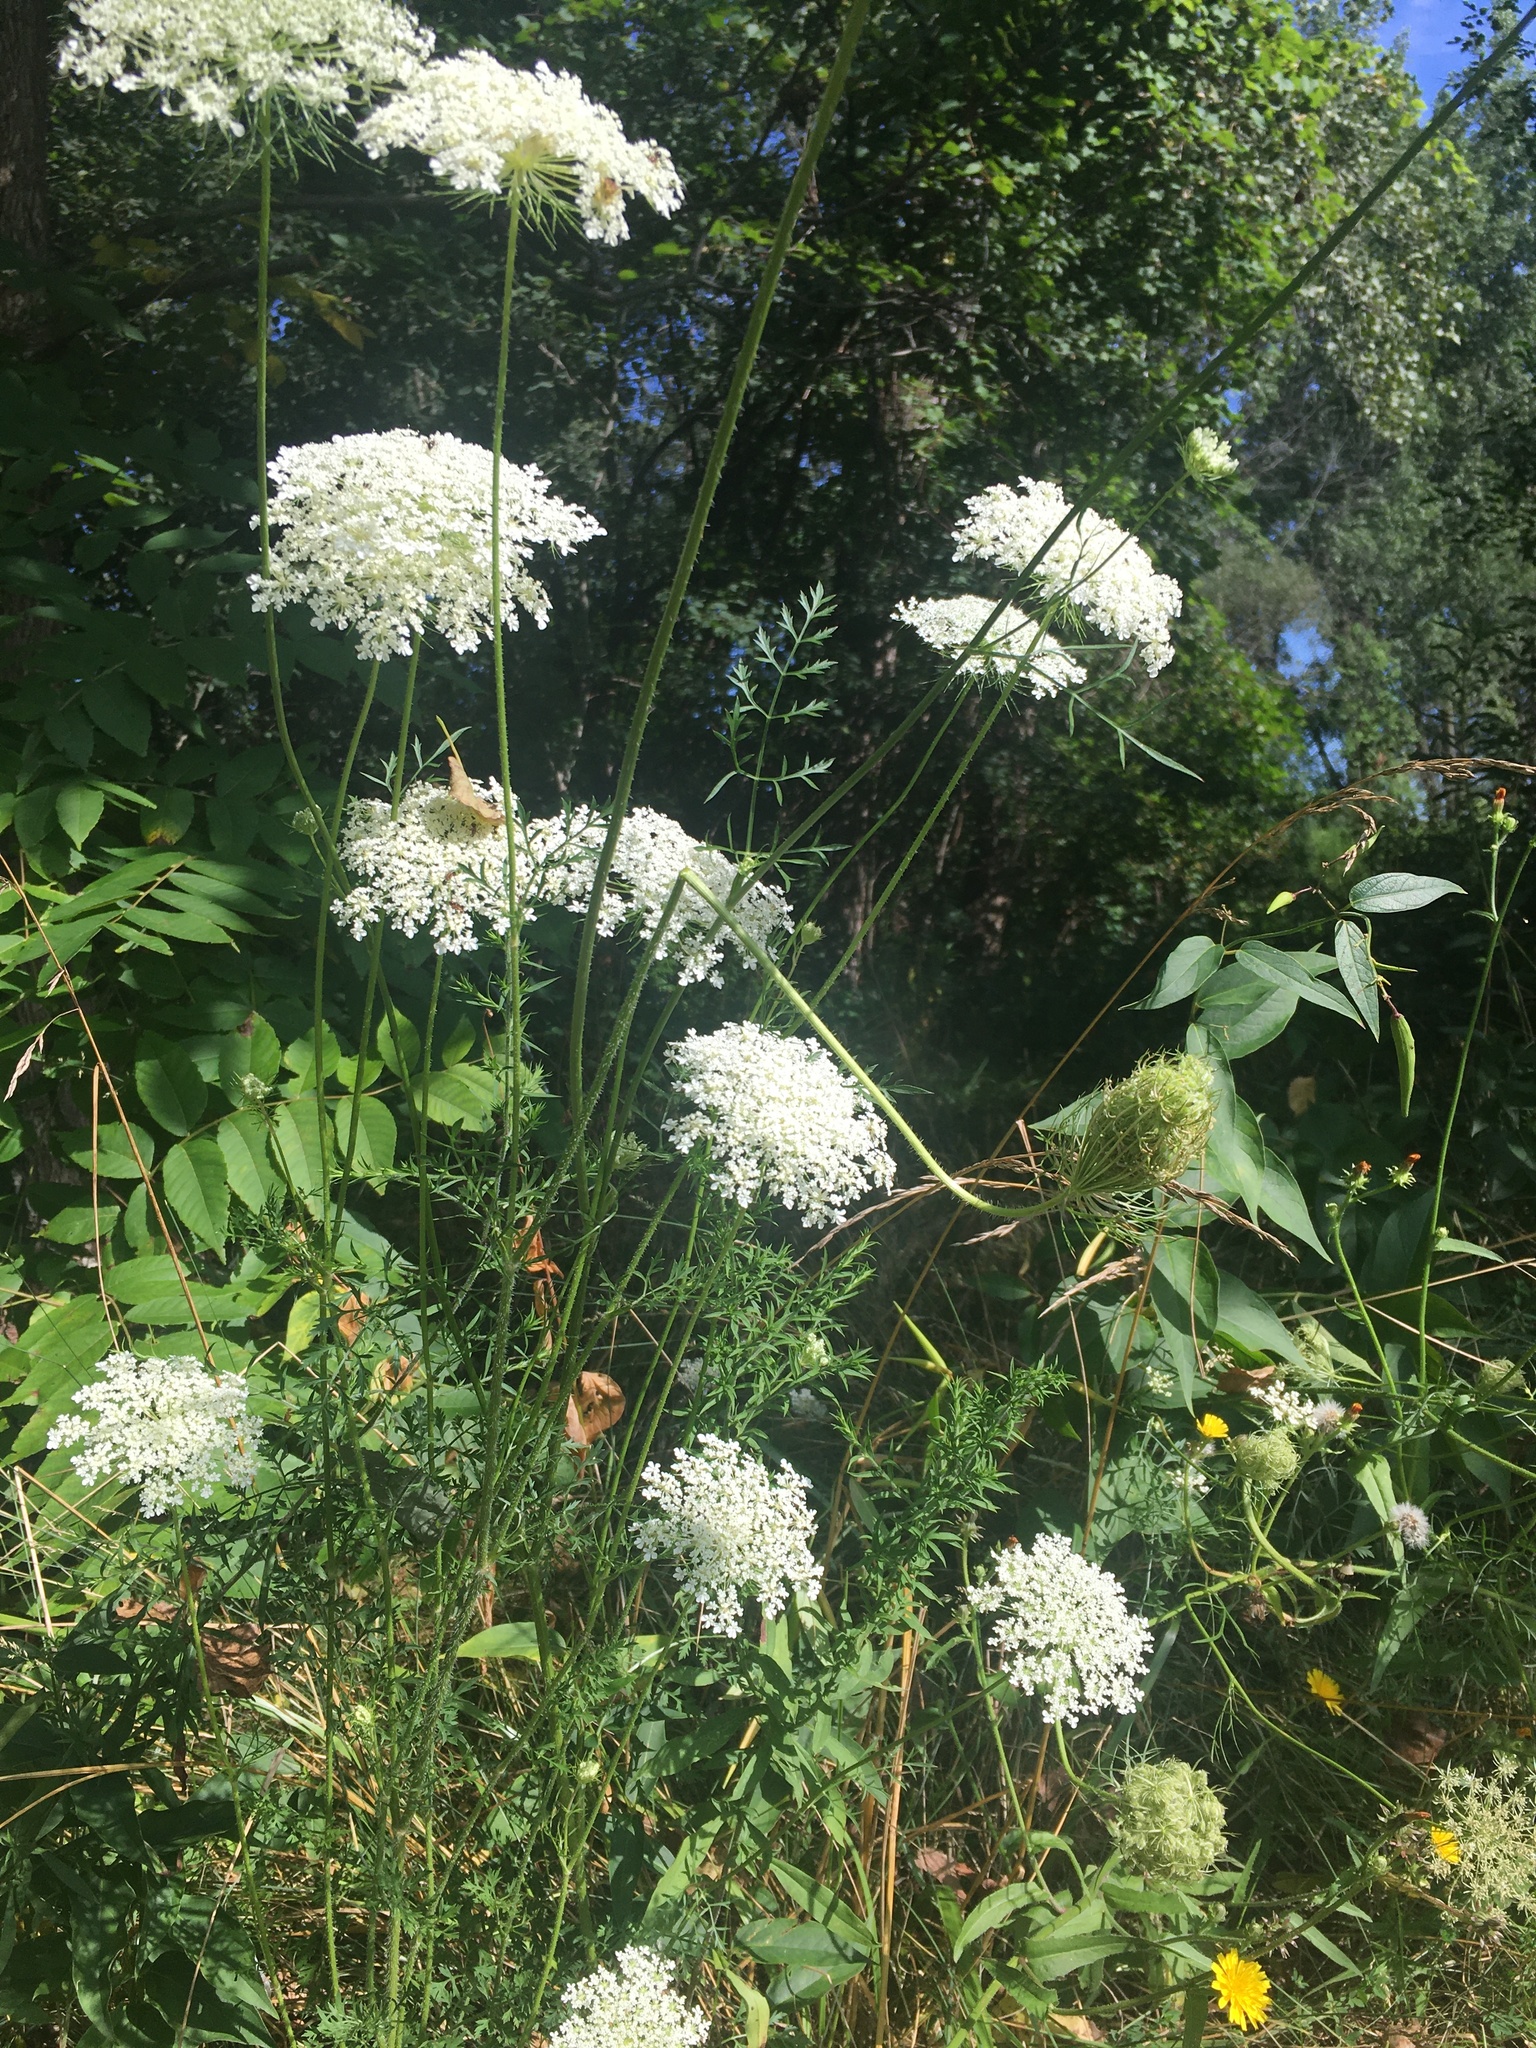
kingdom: Plantae
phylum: Tracheophyta
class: Magnoliopsida
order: Apiales
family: Apiaceae
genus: Daucus
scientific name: Daucus carota
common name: Wild carrot
